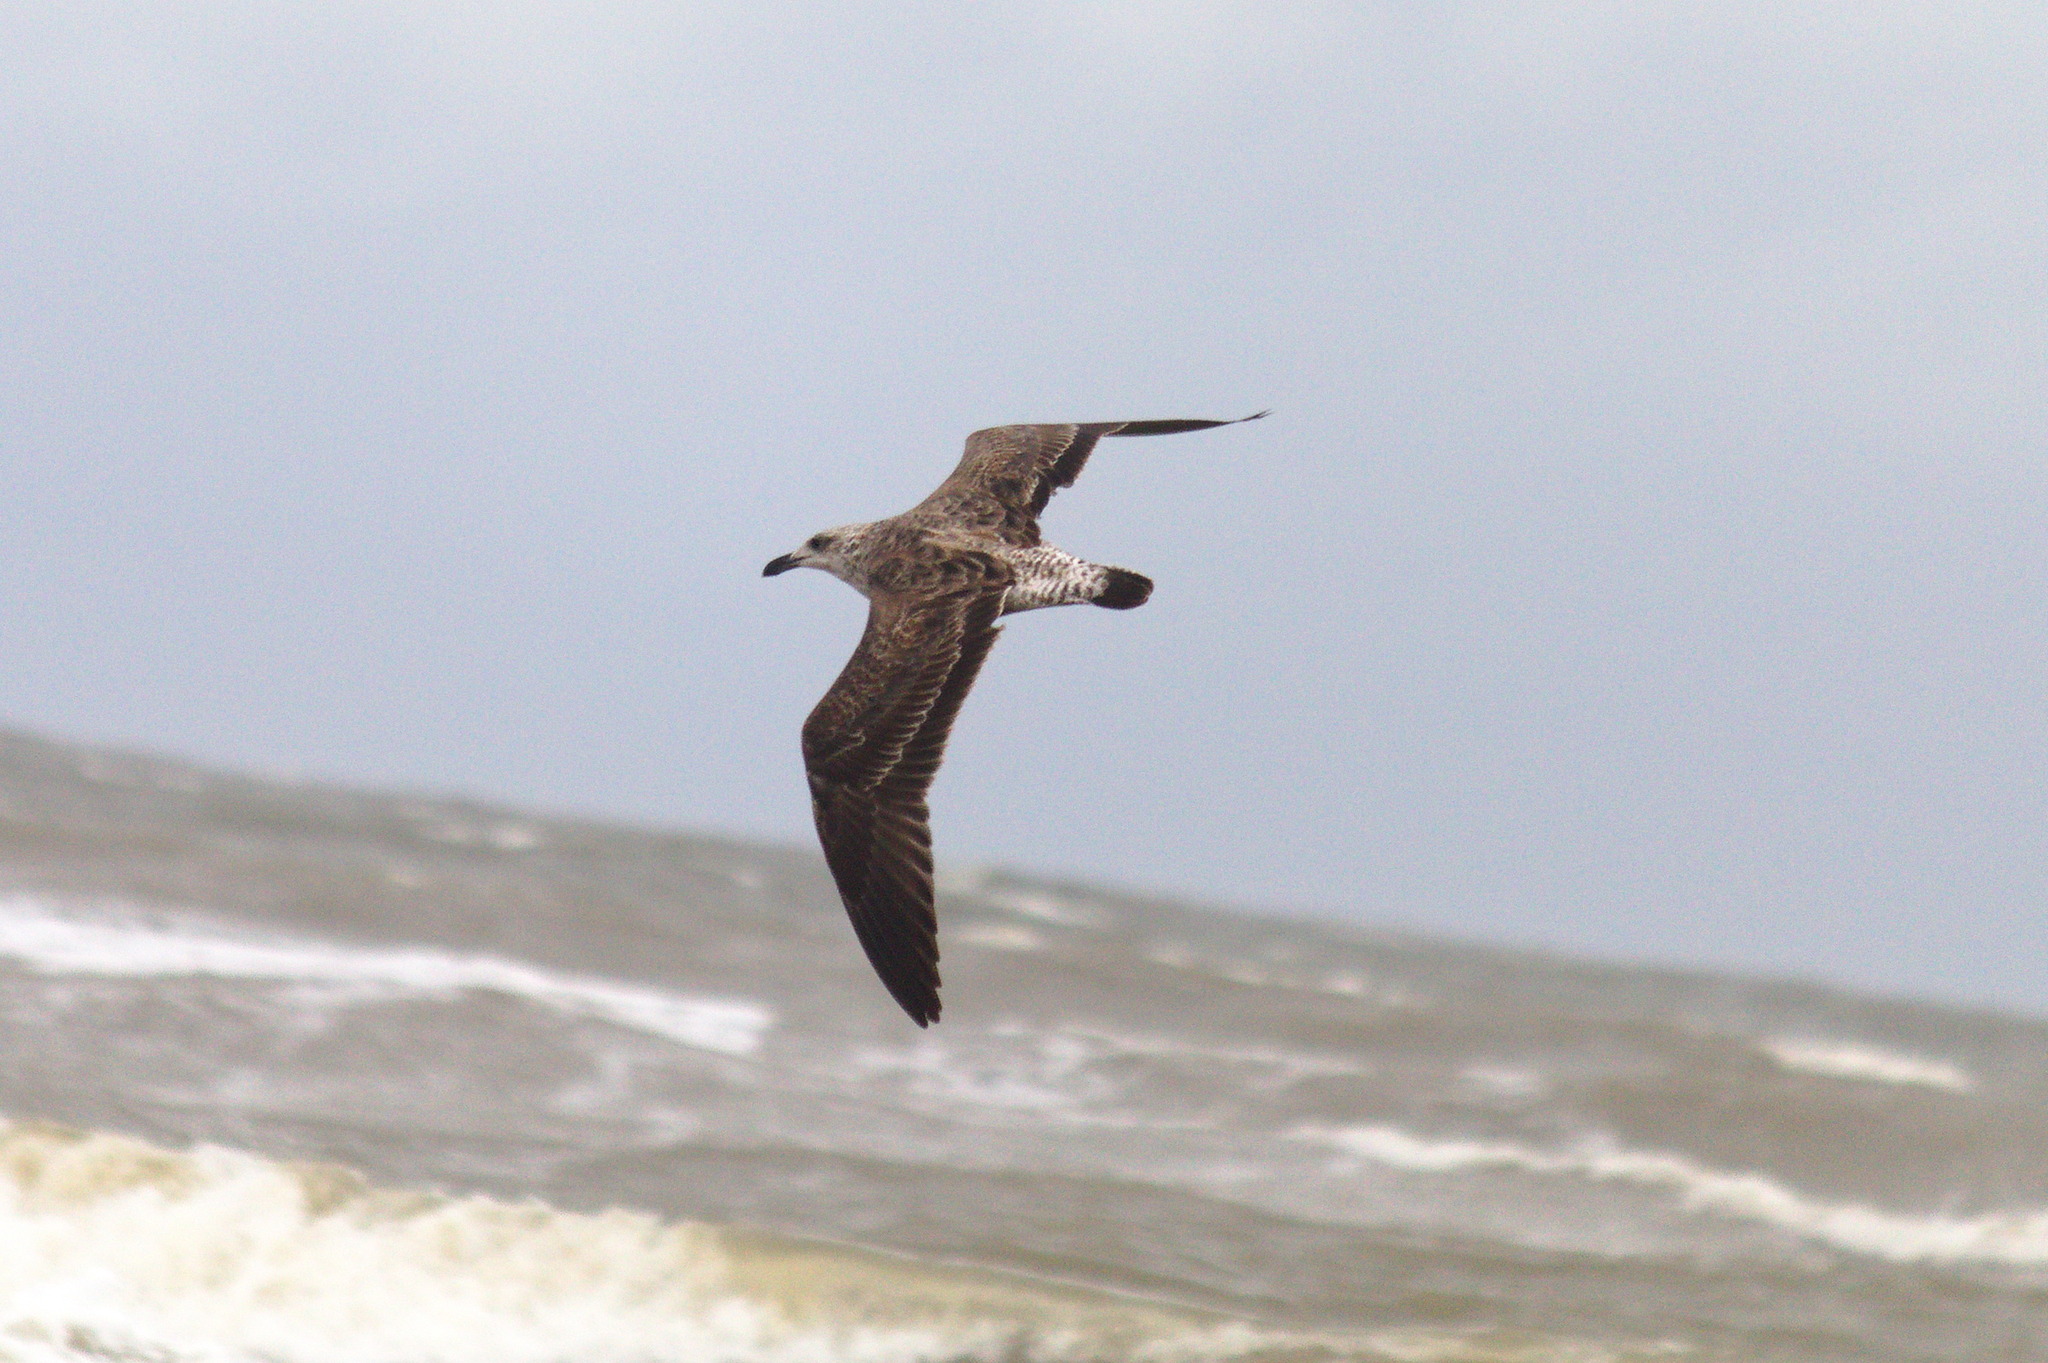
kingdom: Animalia
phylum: Chordata
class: Aves
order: Charadriiformes
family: Laridae
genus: Larus
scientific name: Larus dominicanus
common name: Kelp gull
